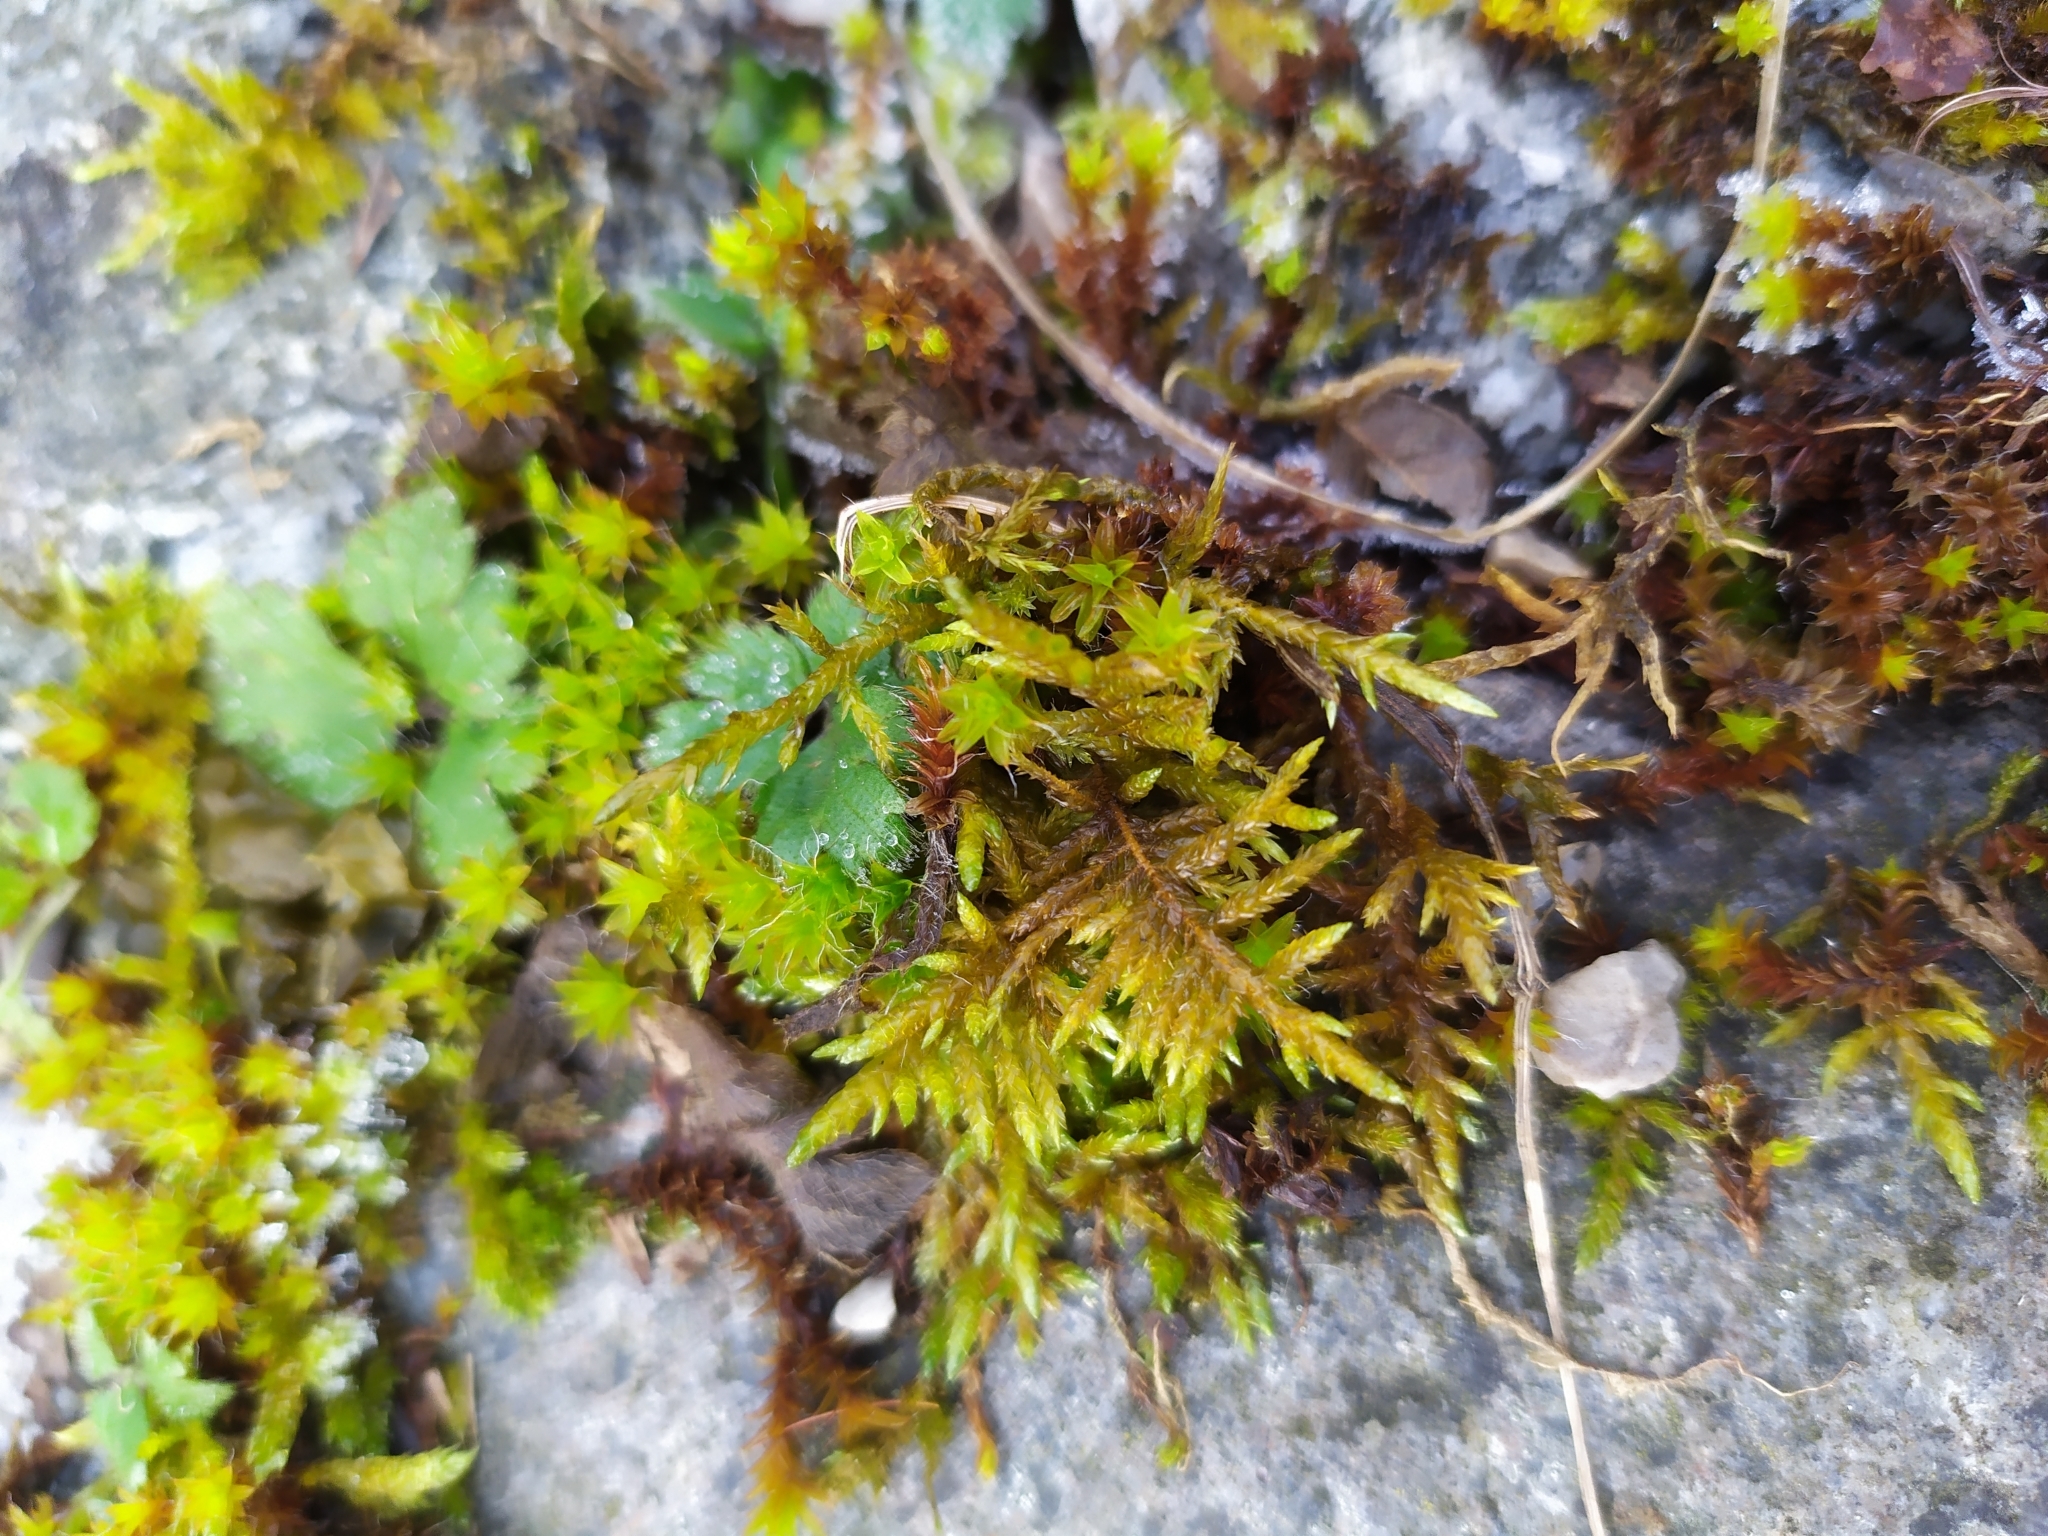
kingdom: Plantae
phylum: Bryophyta
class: Bryopsida
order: Hypnales
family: Entodontaceae
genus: Entodon
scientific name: Entodon concinnus
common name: Montagne's cylinder-moss
